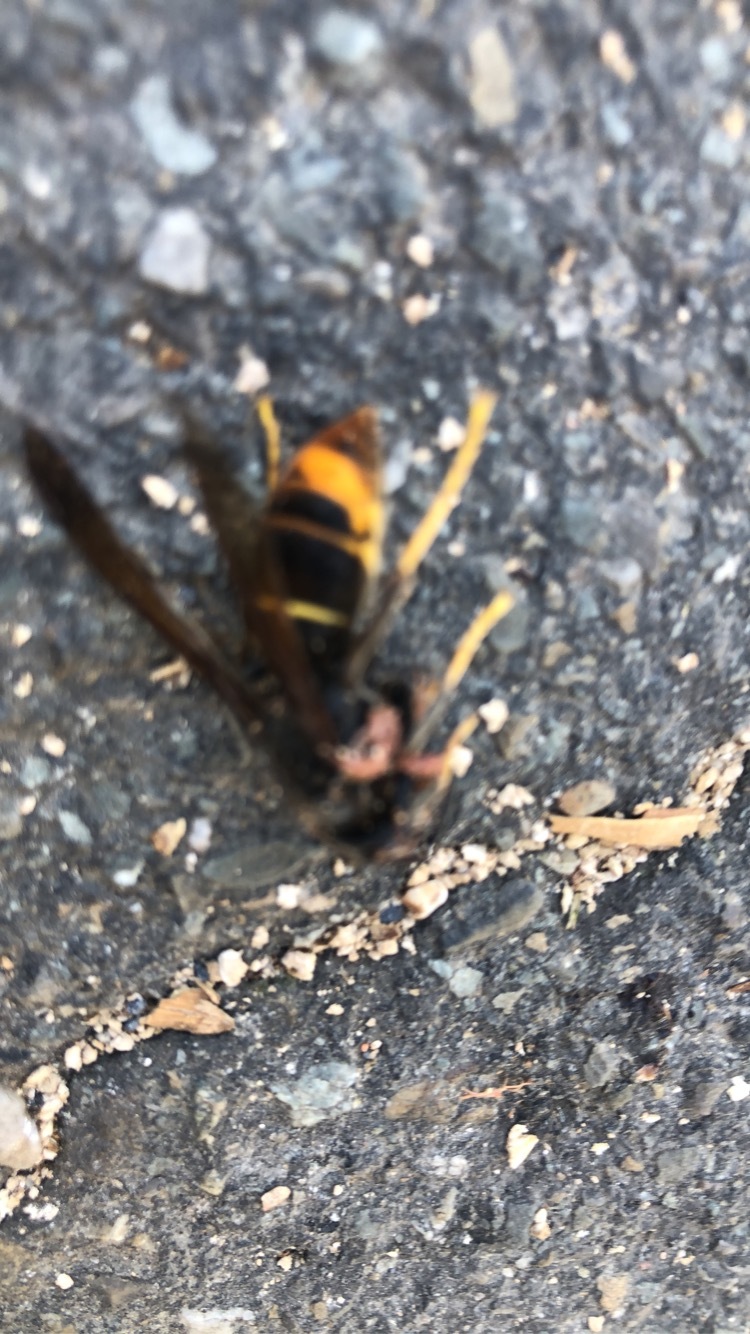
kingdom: Animalia
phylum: Arthropoda
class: Insecta
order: Hymenoptera
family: Vespidae
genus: Vespa
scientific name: Vespa velutina
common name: Asian hornet
